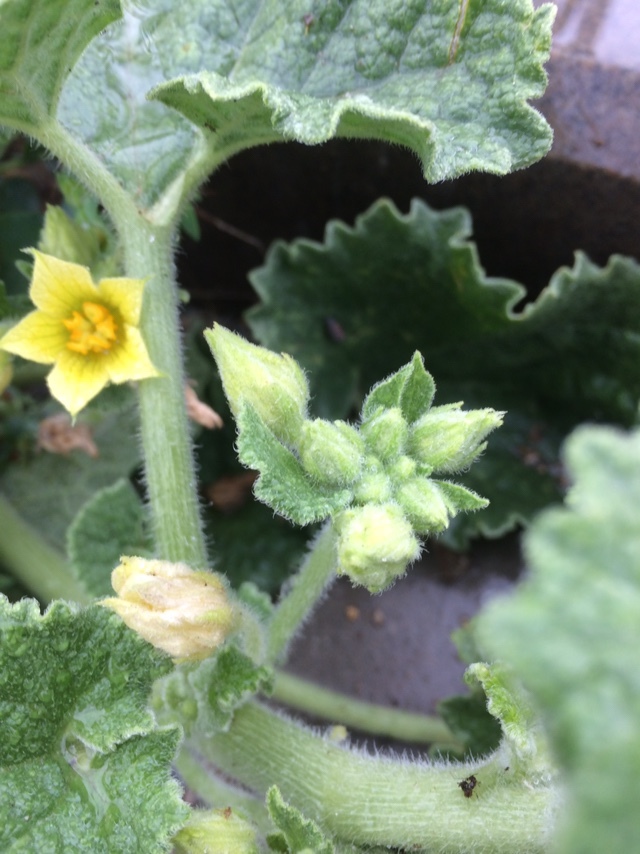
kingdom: Plantae
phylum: Tracheophyta
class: Magnoliopsida
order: Cucurbitales
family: Cucurbitaceae
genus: Ecballium
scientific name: Ecballium elaterium
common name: Squirting cucumber
